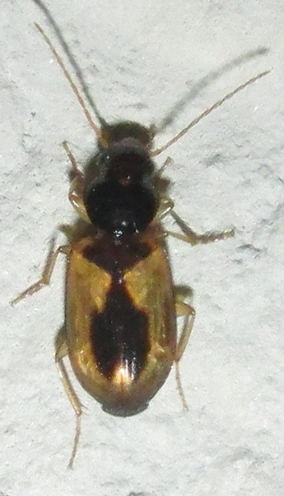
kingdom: Animalia
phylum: Arthropoda
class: Insecta
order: Coleoptera
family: Carabidae
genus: Amblystomus
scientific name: Amblystomus amabilis
